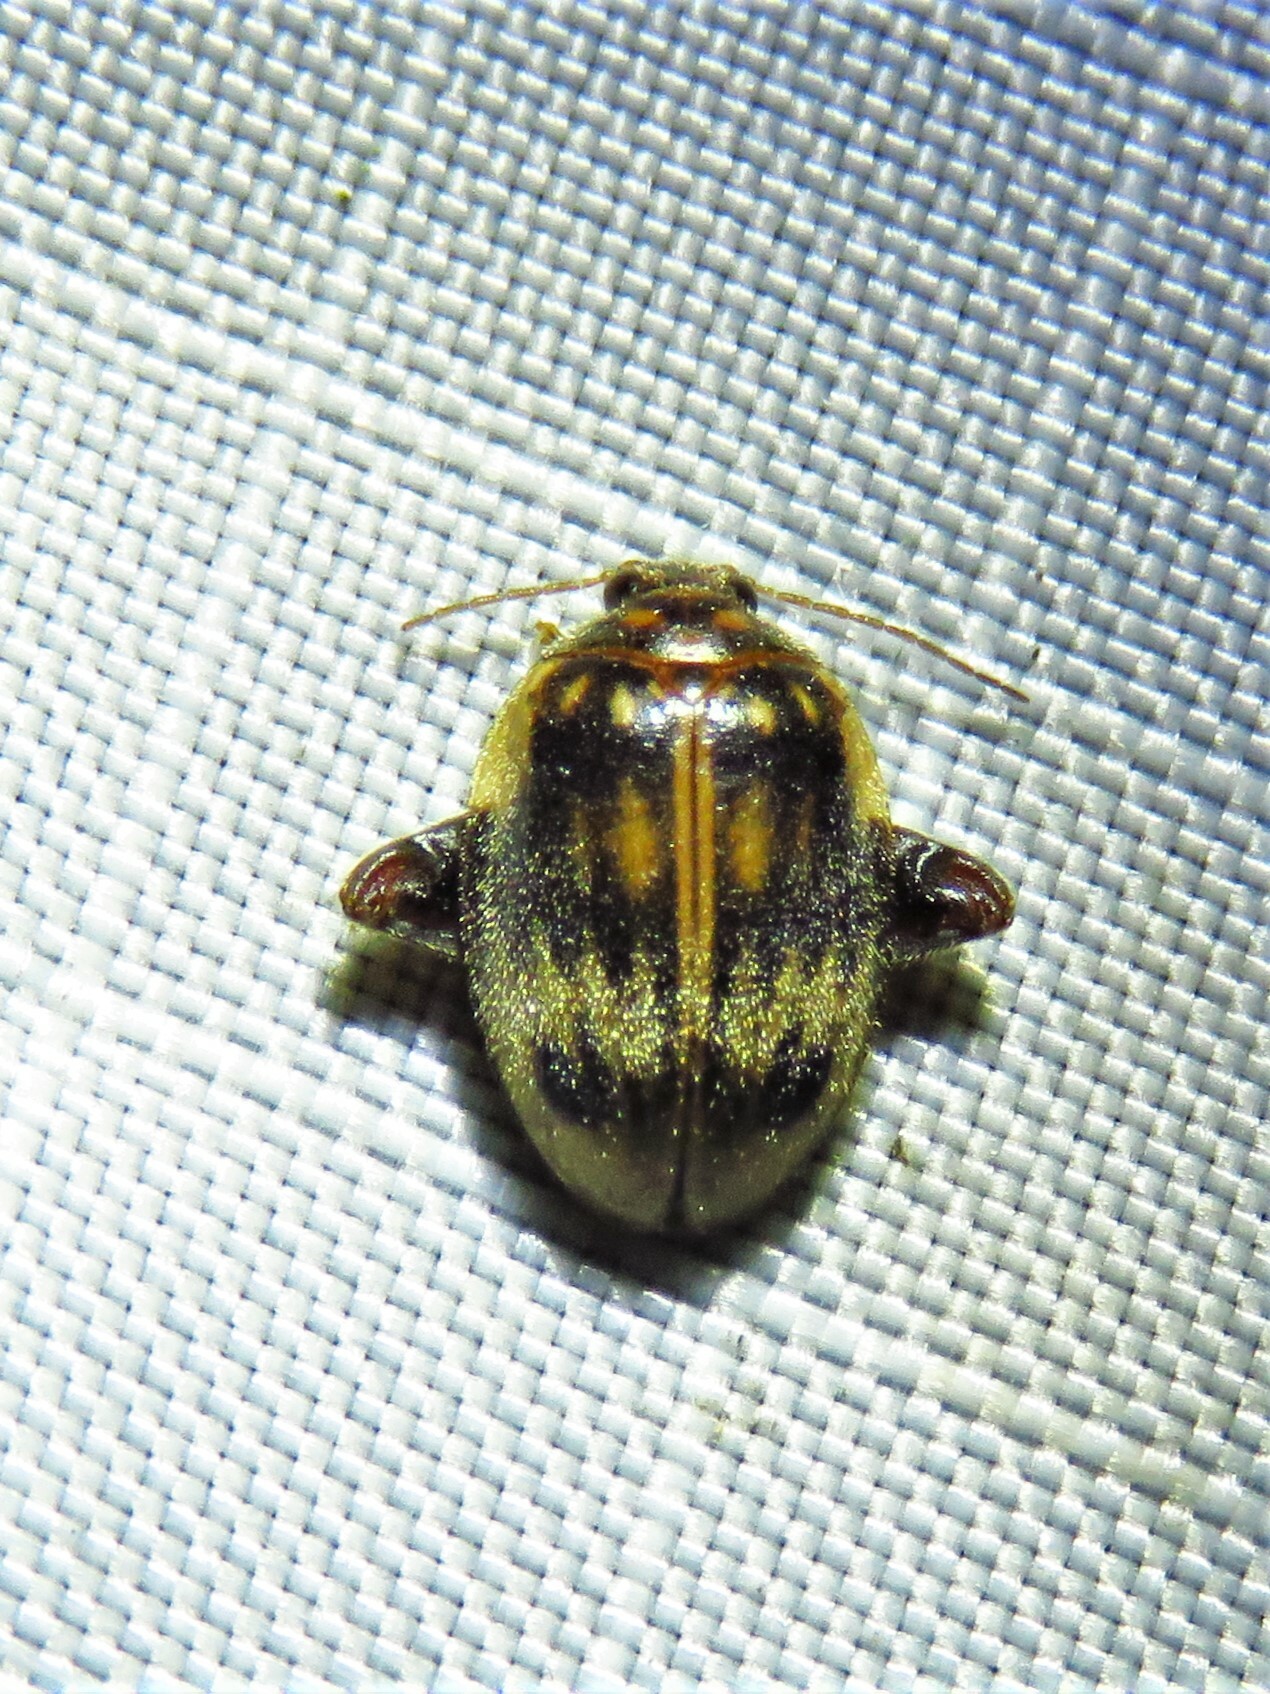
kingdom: Animalia
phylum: Arthropoda
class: Insecta
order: Coleoptera
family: Scirtidae
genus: Ora
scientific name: Ora texana
